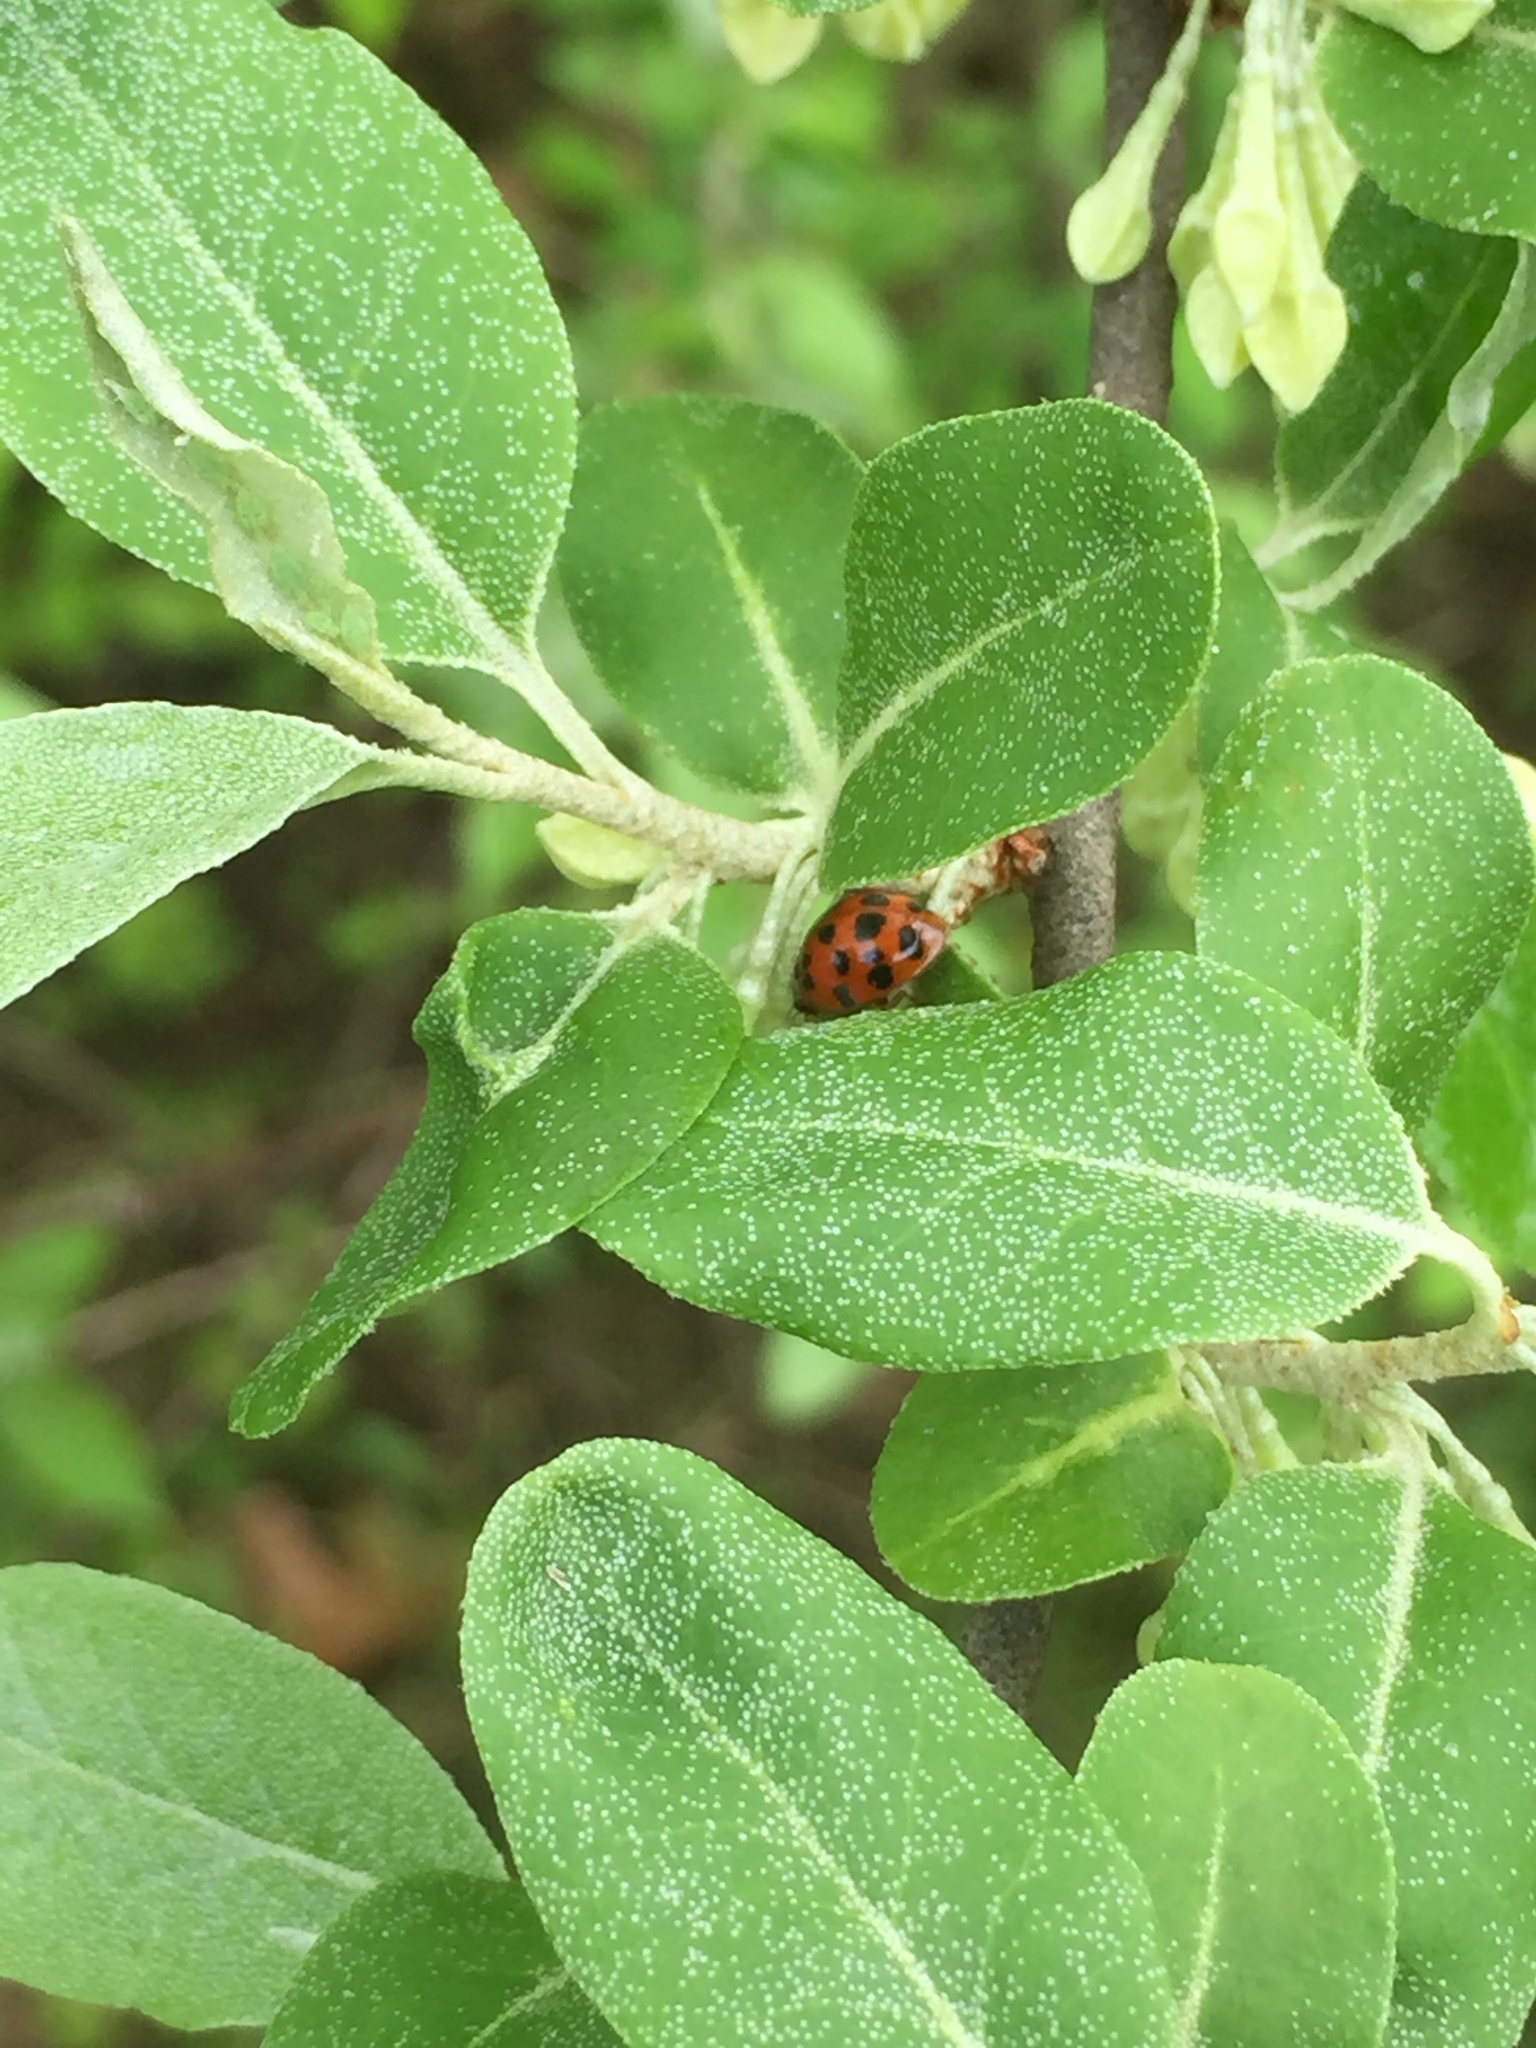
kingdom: Animalia
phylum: Arthropoda
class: Insecta
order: Coleoptera
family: Coccinellidae
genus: Harmonia
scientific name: Harmonia axyridis
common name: Harlequin ladybird
